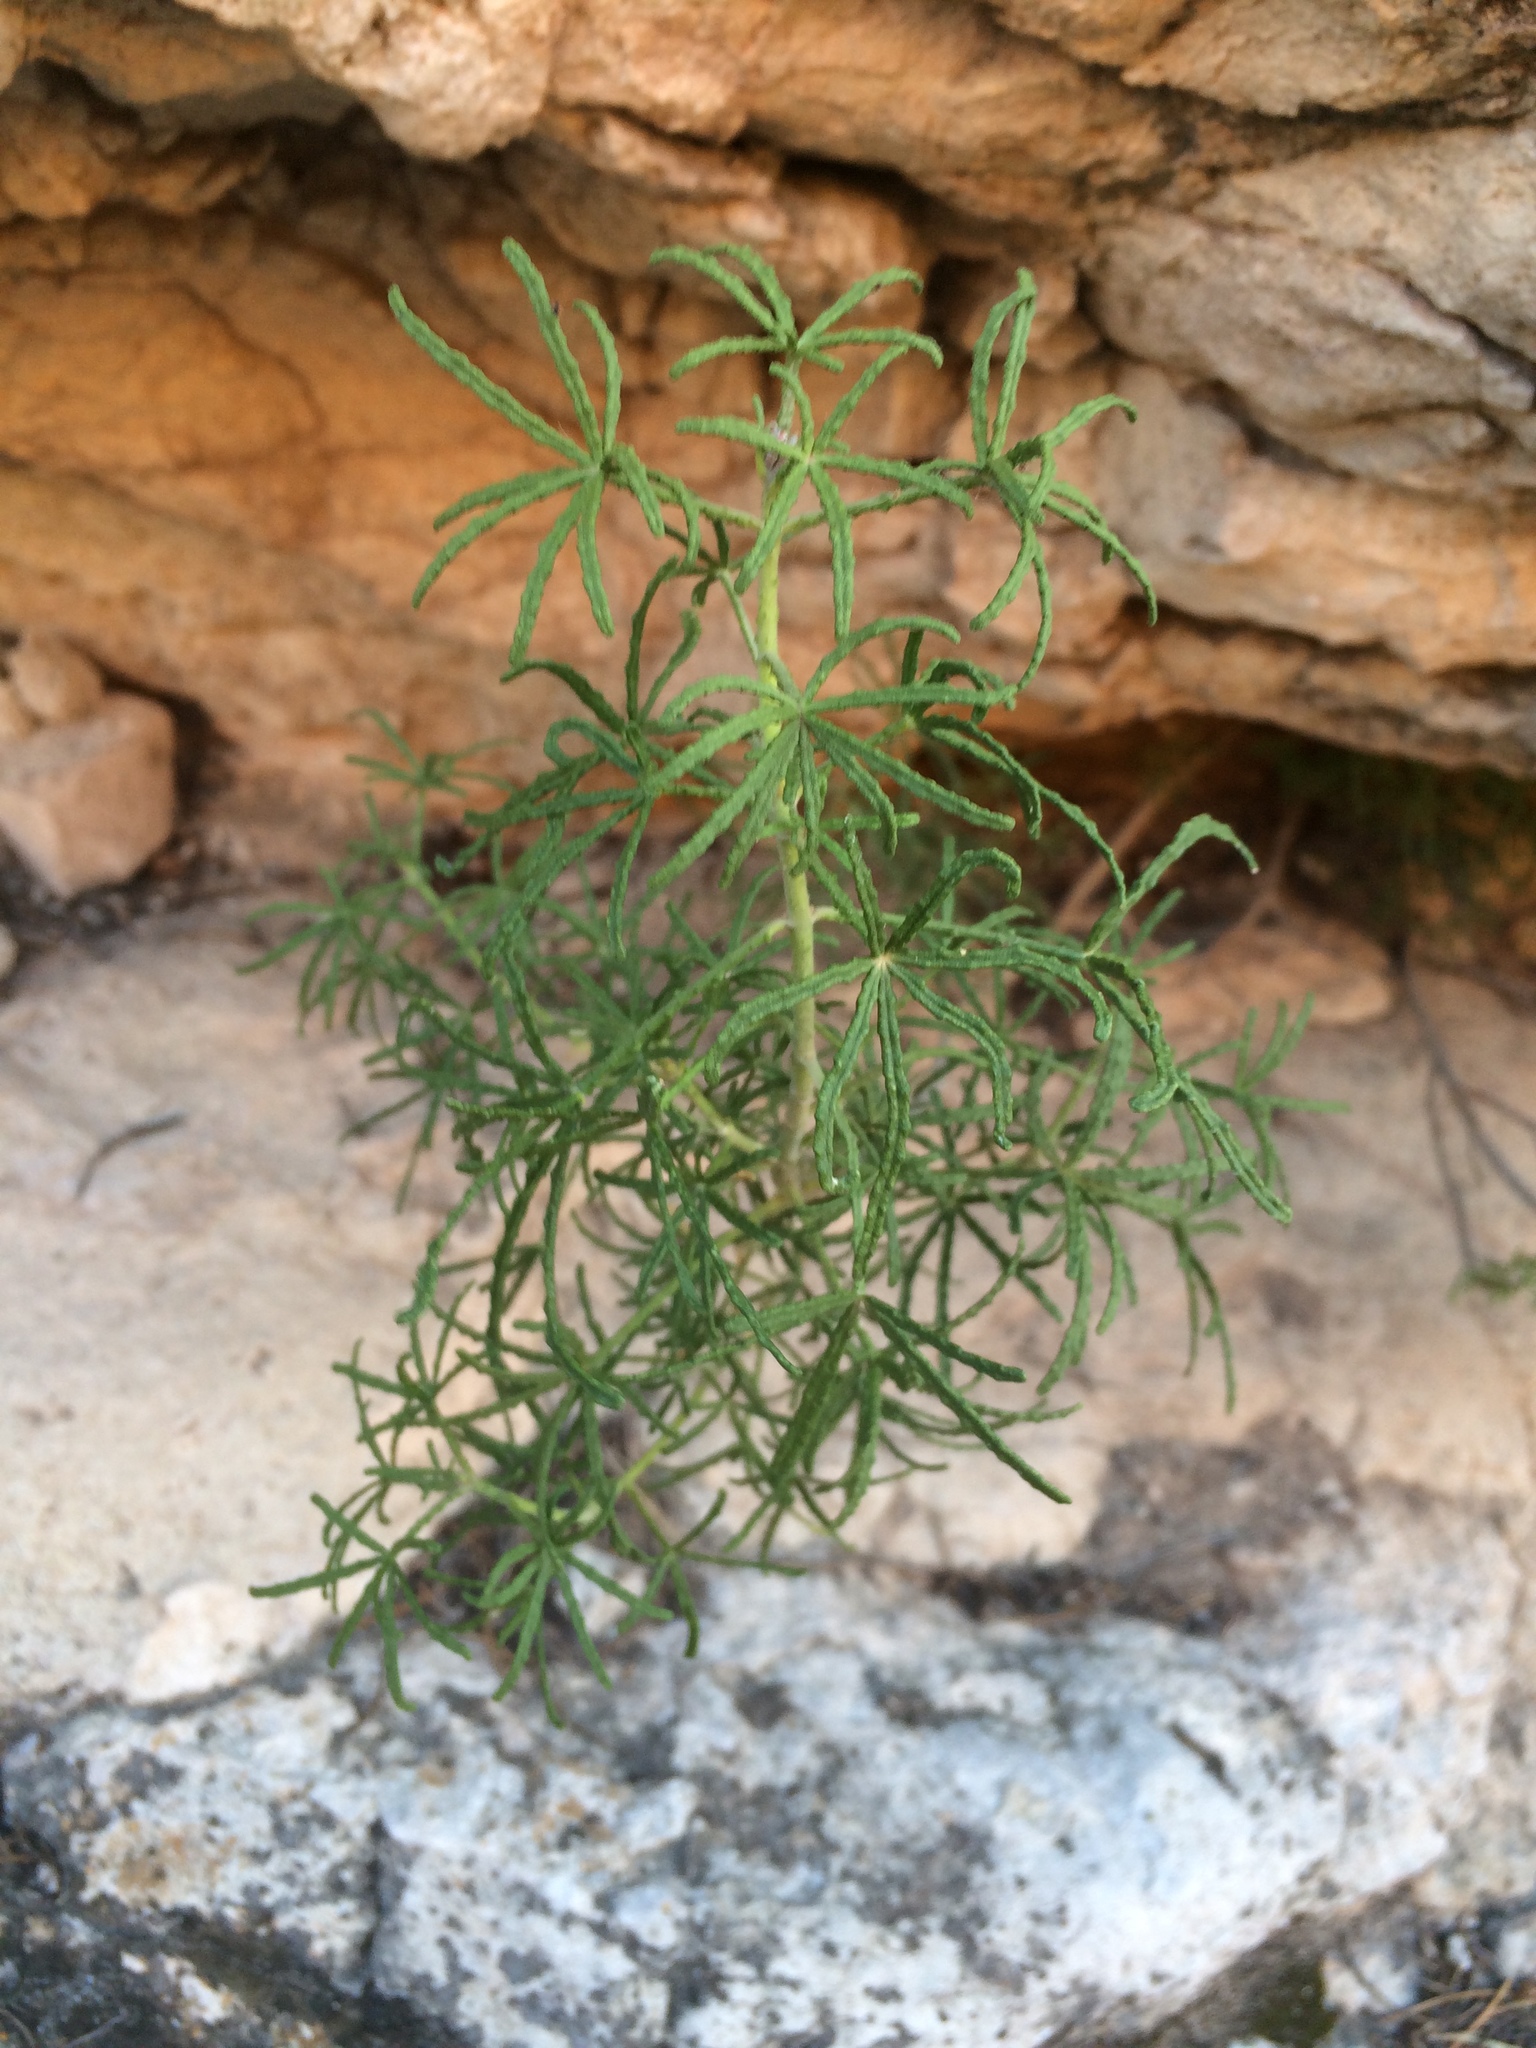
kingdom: Plantae
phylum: Tracheophyta
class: Magnoliopsida
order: Sapindales
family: Rutaceae
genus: Choisya
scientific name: Choisya dumosa
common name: Mexican-orange
